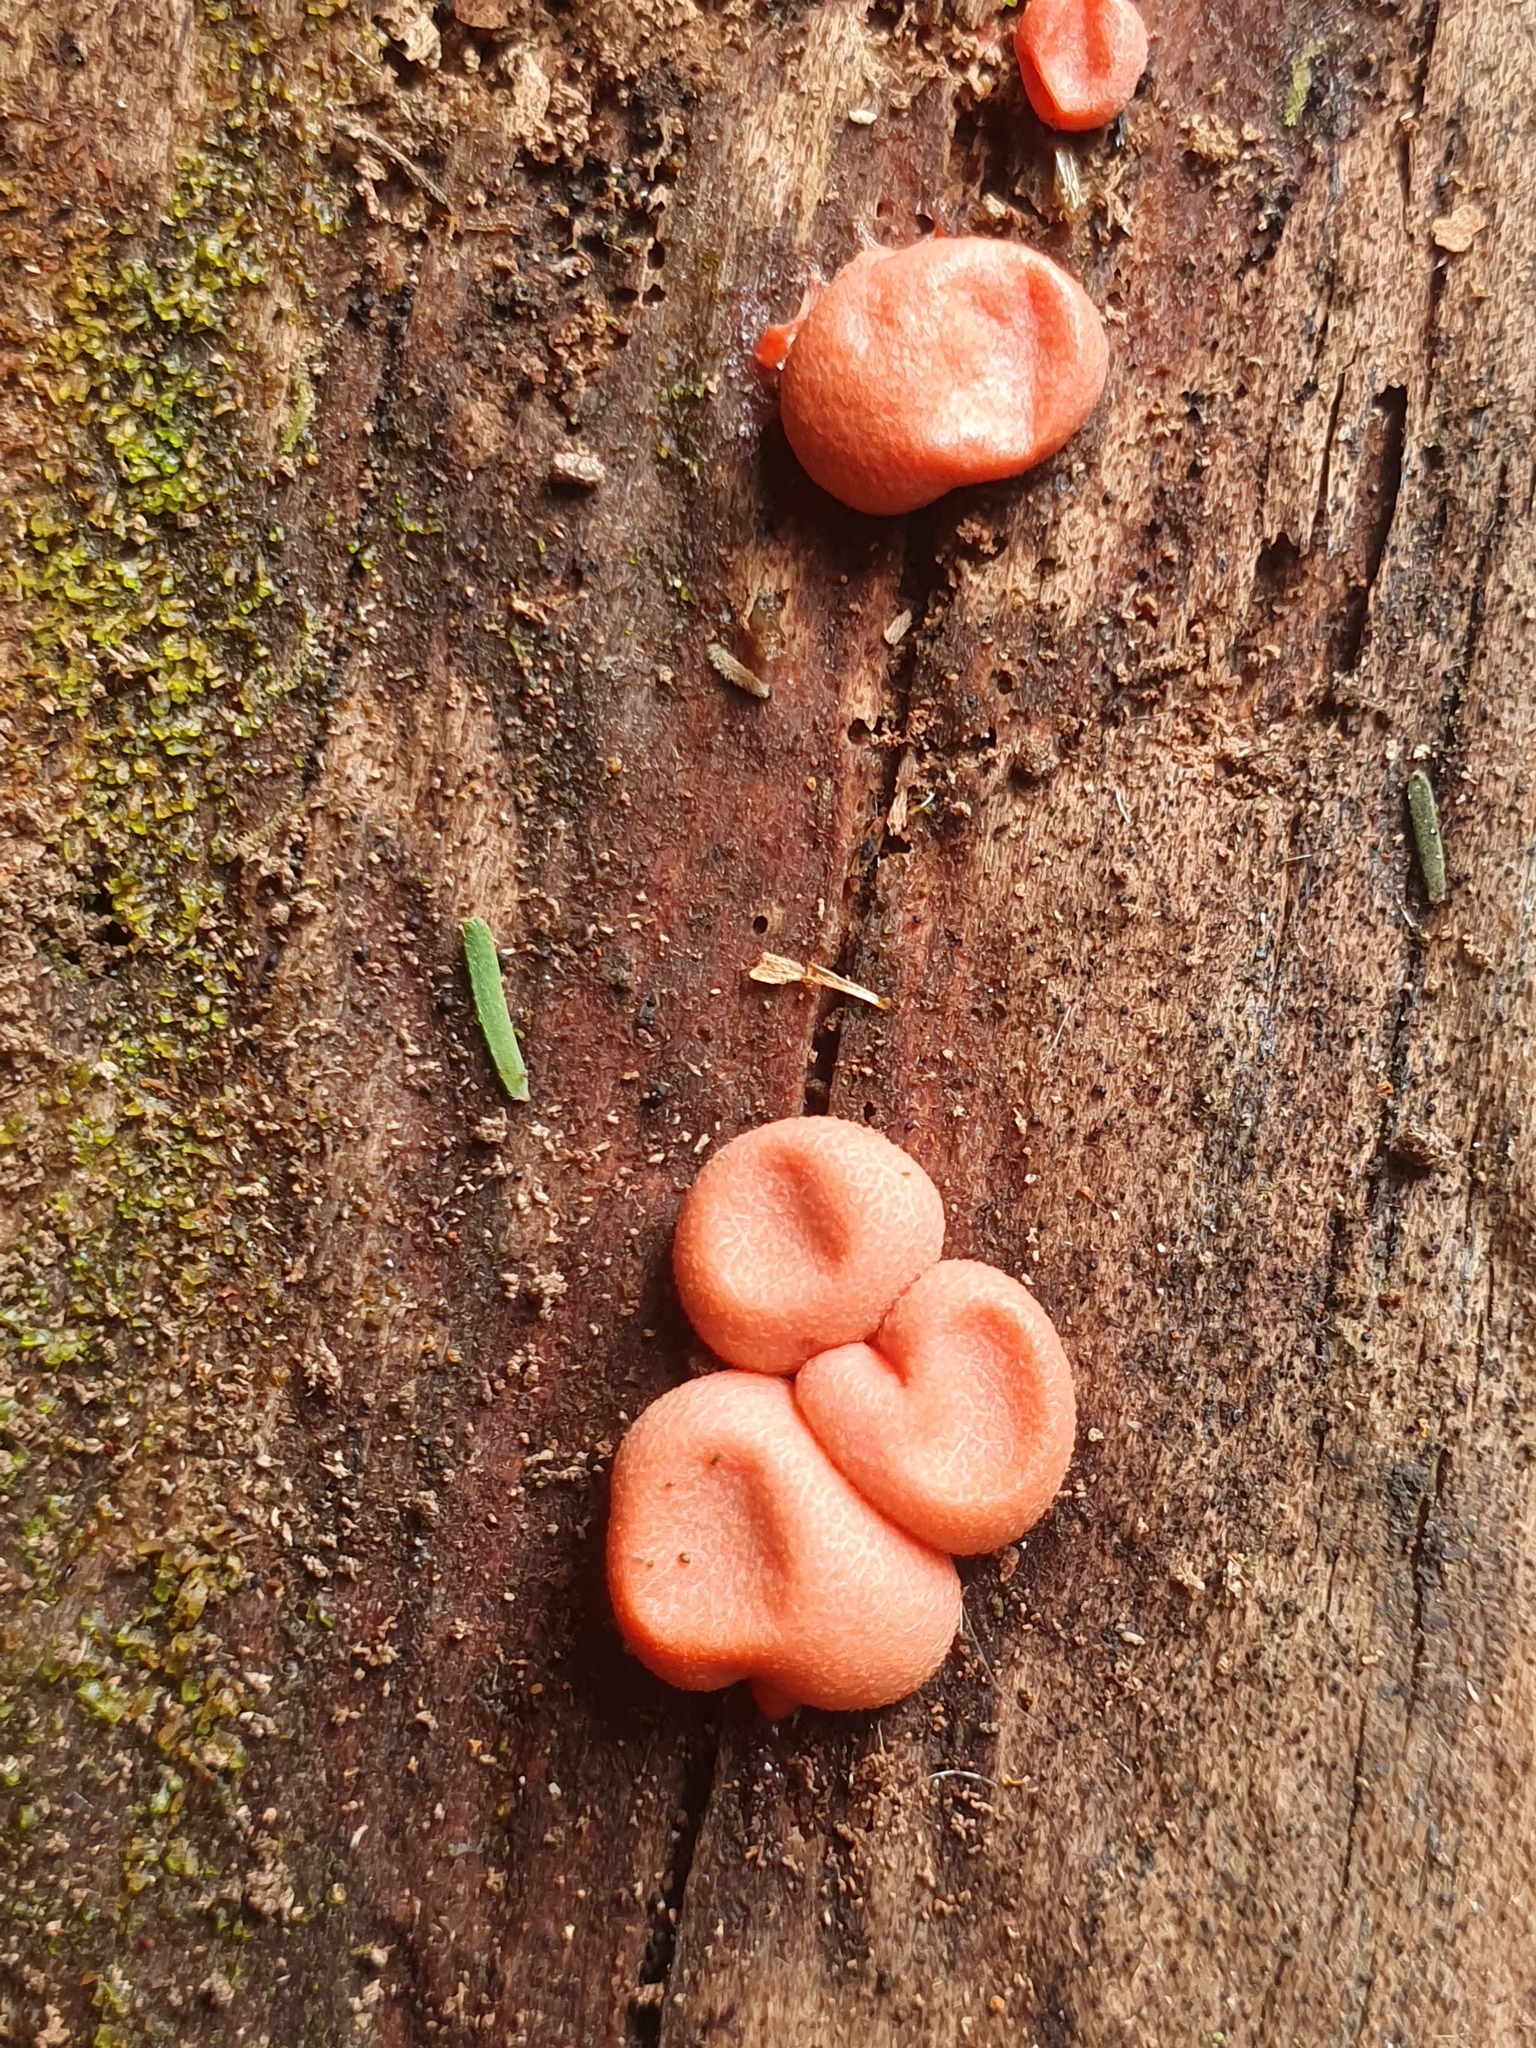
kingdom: Protozoa
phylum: Mycetozoa
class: Myxomycetes
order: Cribrariales
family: Tubiferaceae
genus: Lycogala
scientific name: Lycogala epidendrum
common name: Wolf's milk
